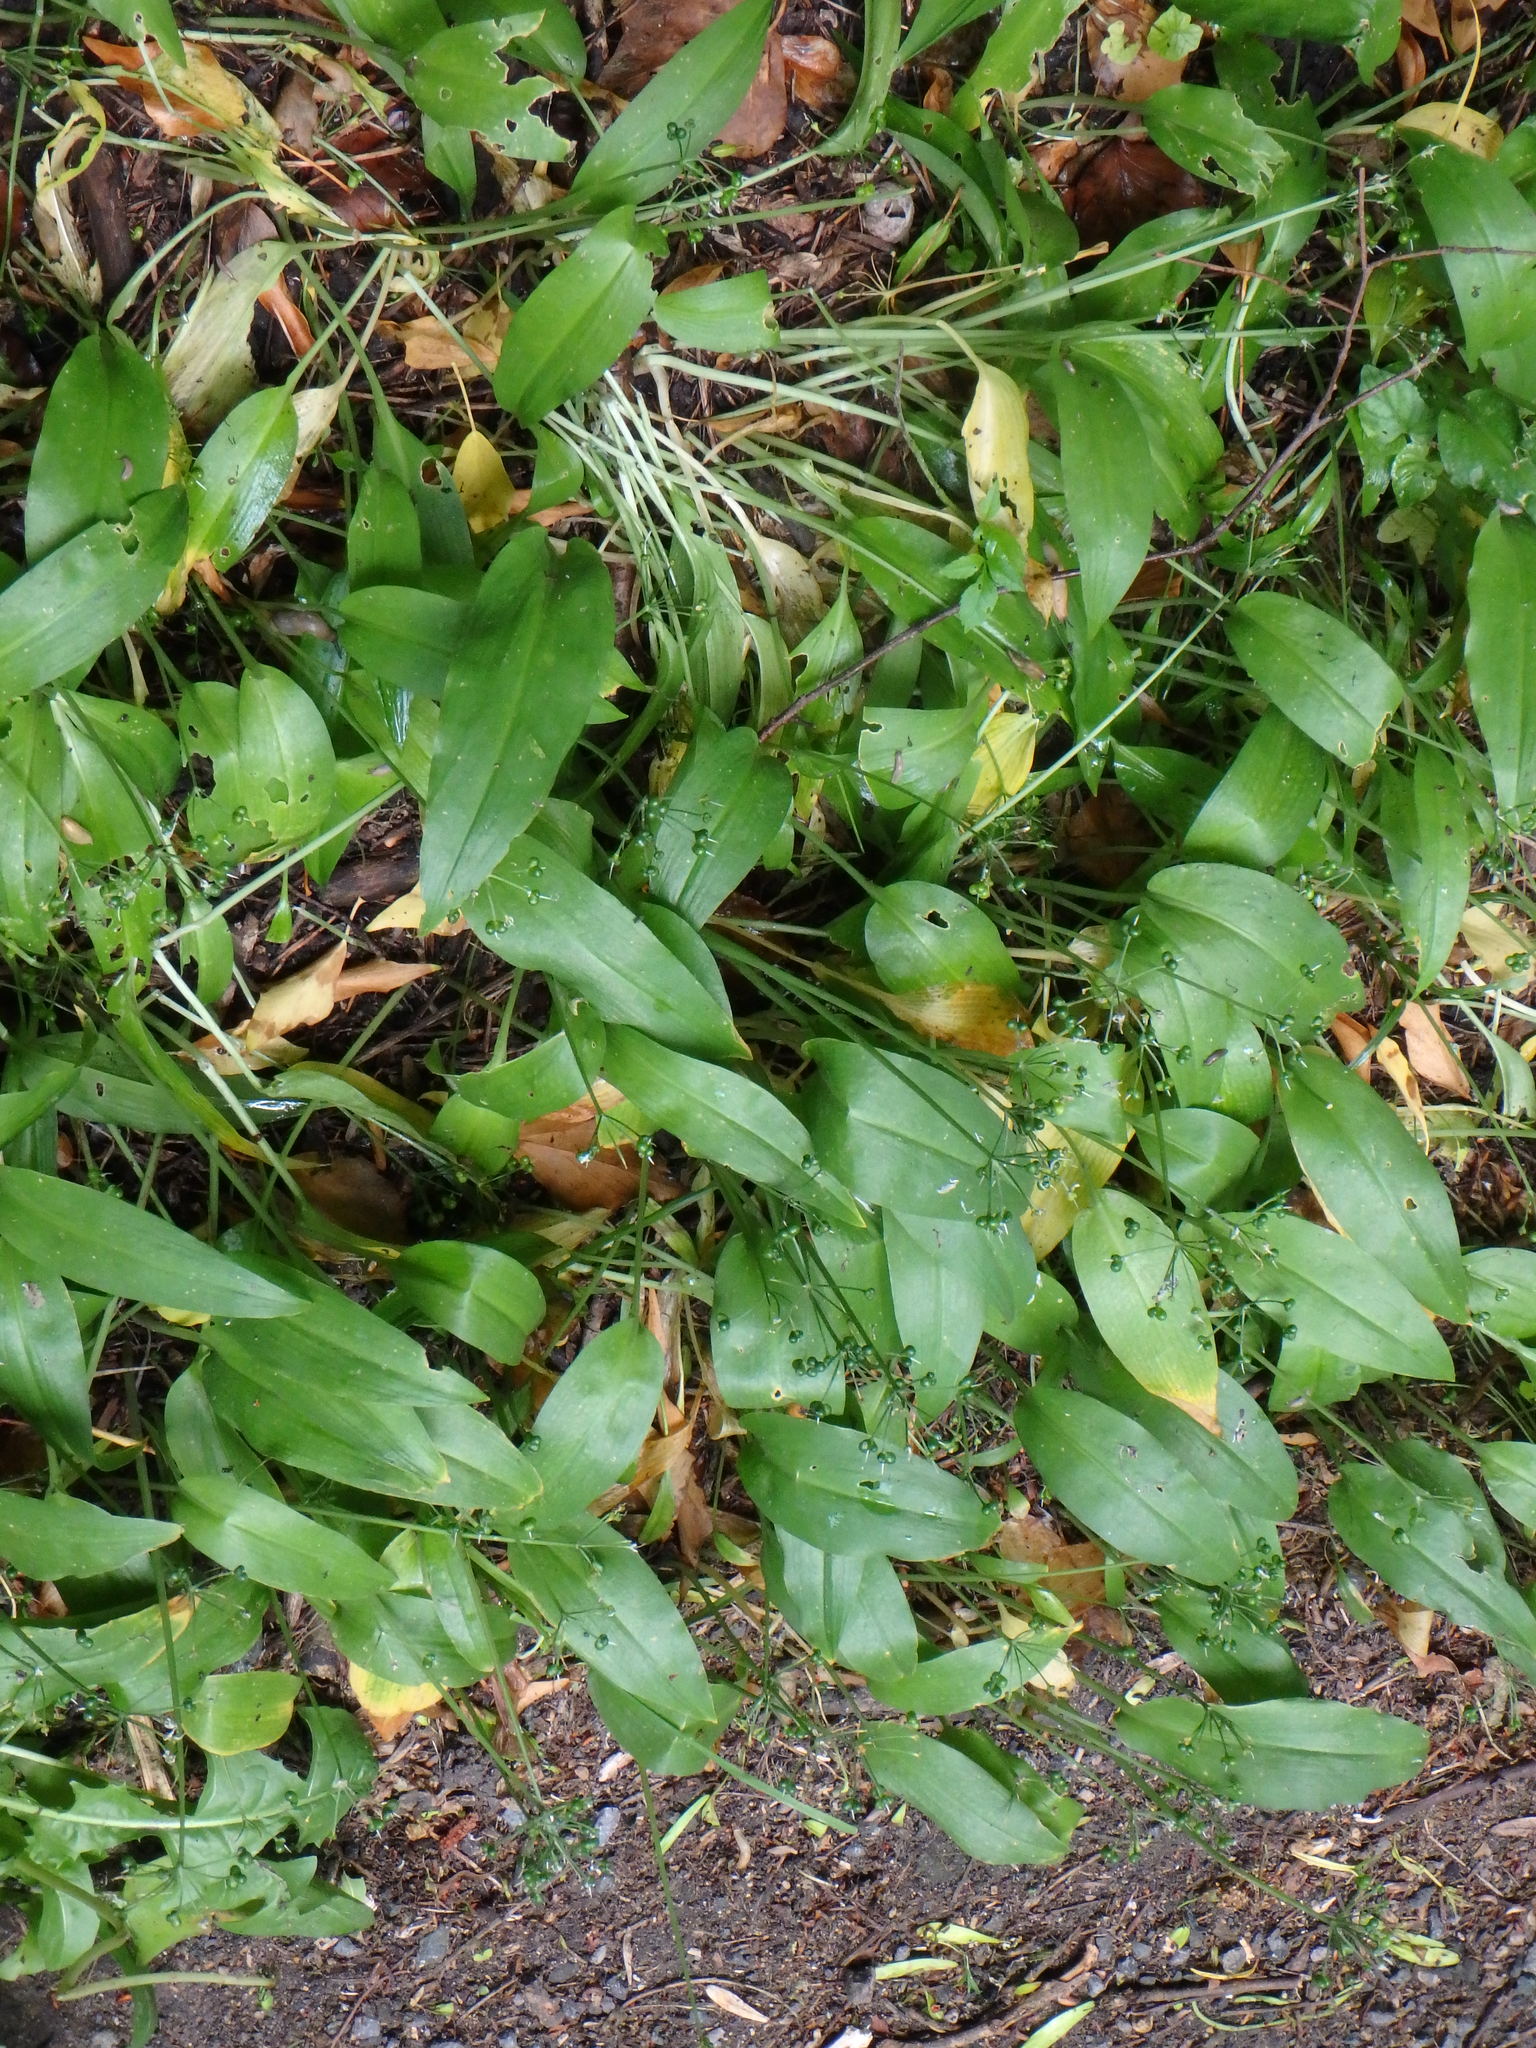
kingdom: Plantae
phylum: Tracheophyta
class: Liliopsida
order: Asparagales
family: Amaryllidaceae
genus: Allium
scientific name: Allium ursinum
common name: Ramsons
